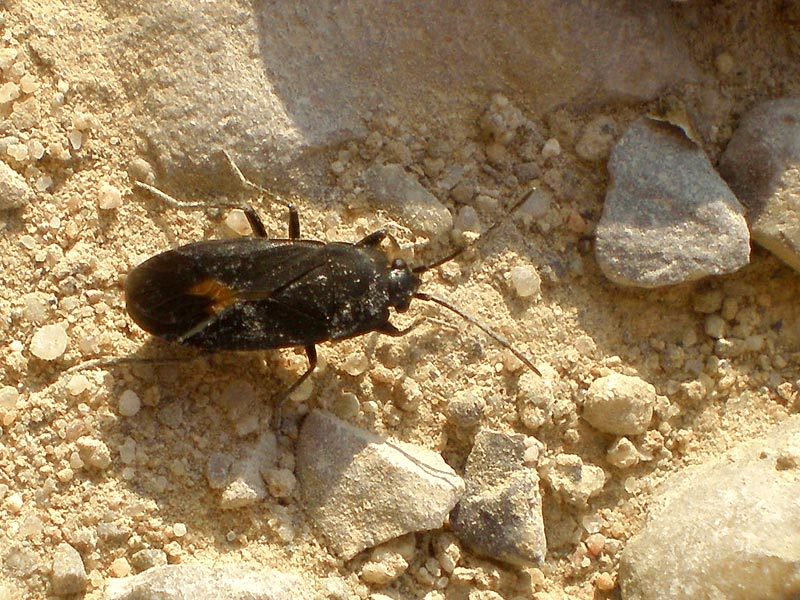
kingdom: Animalia
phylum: Arthropoda
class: Insecta
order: Hemiptera
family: Rhyparochromidae
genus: Aphanus
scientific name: Aphanus rolandri
